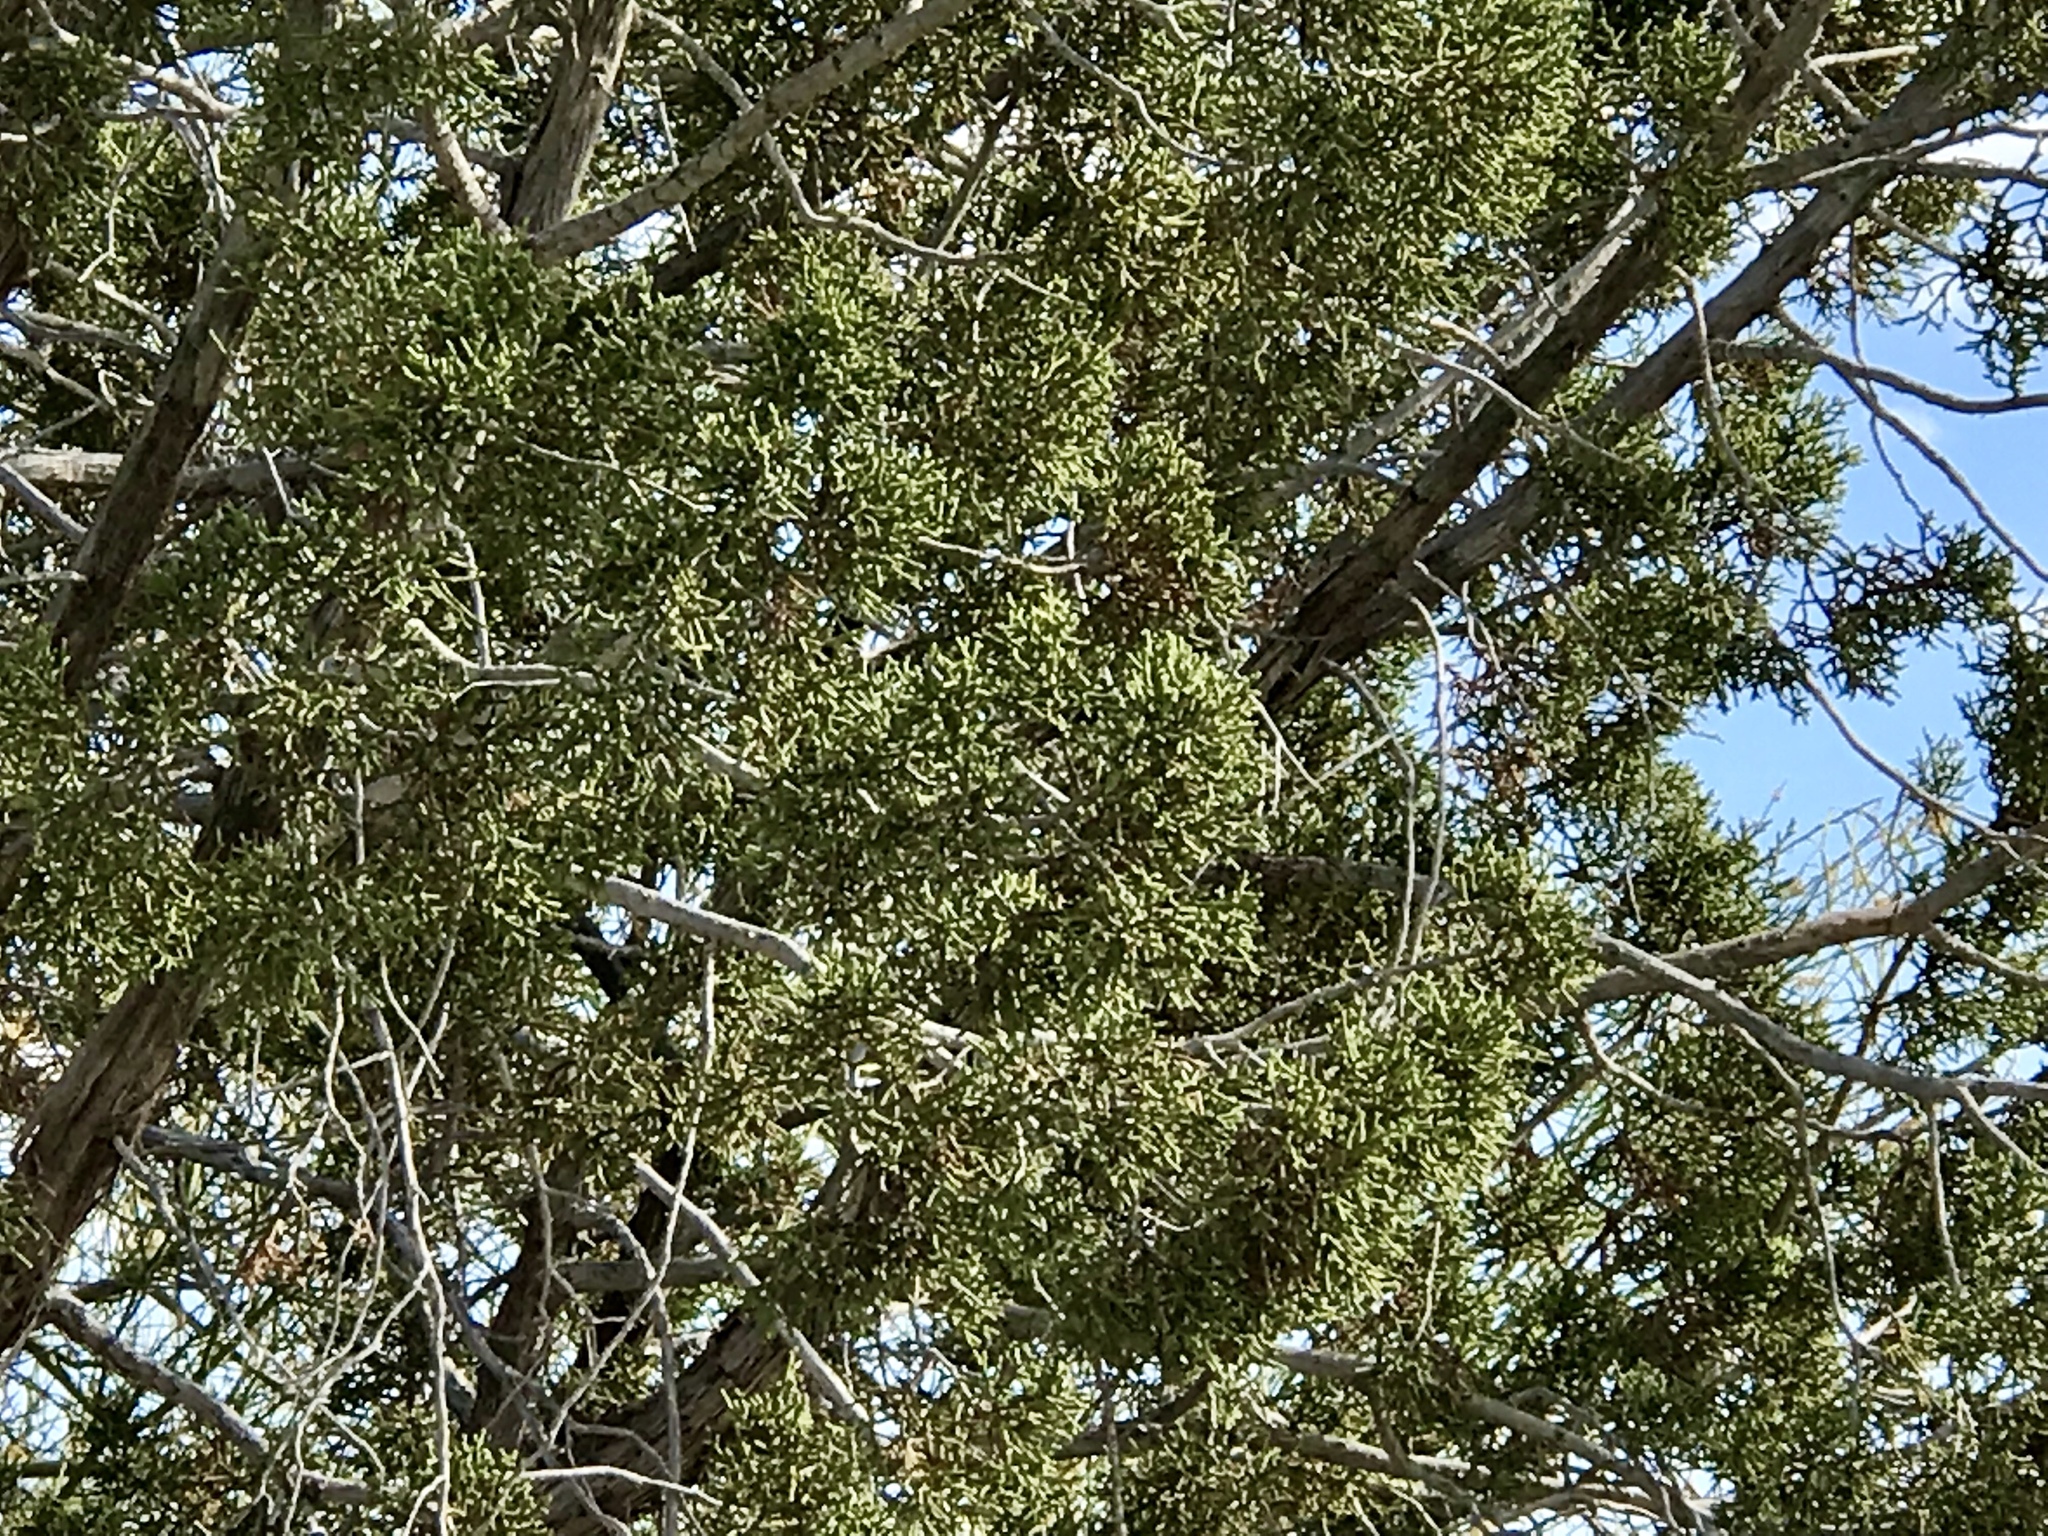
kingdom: Plantae
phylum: Tracheophyta
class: Pinopsida
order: Pinales
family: Cupressaceae
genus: Juniperus
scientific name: Juniperus californica
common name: California juniper
